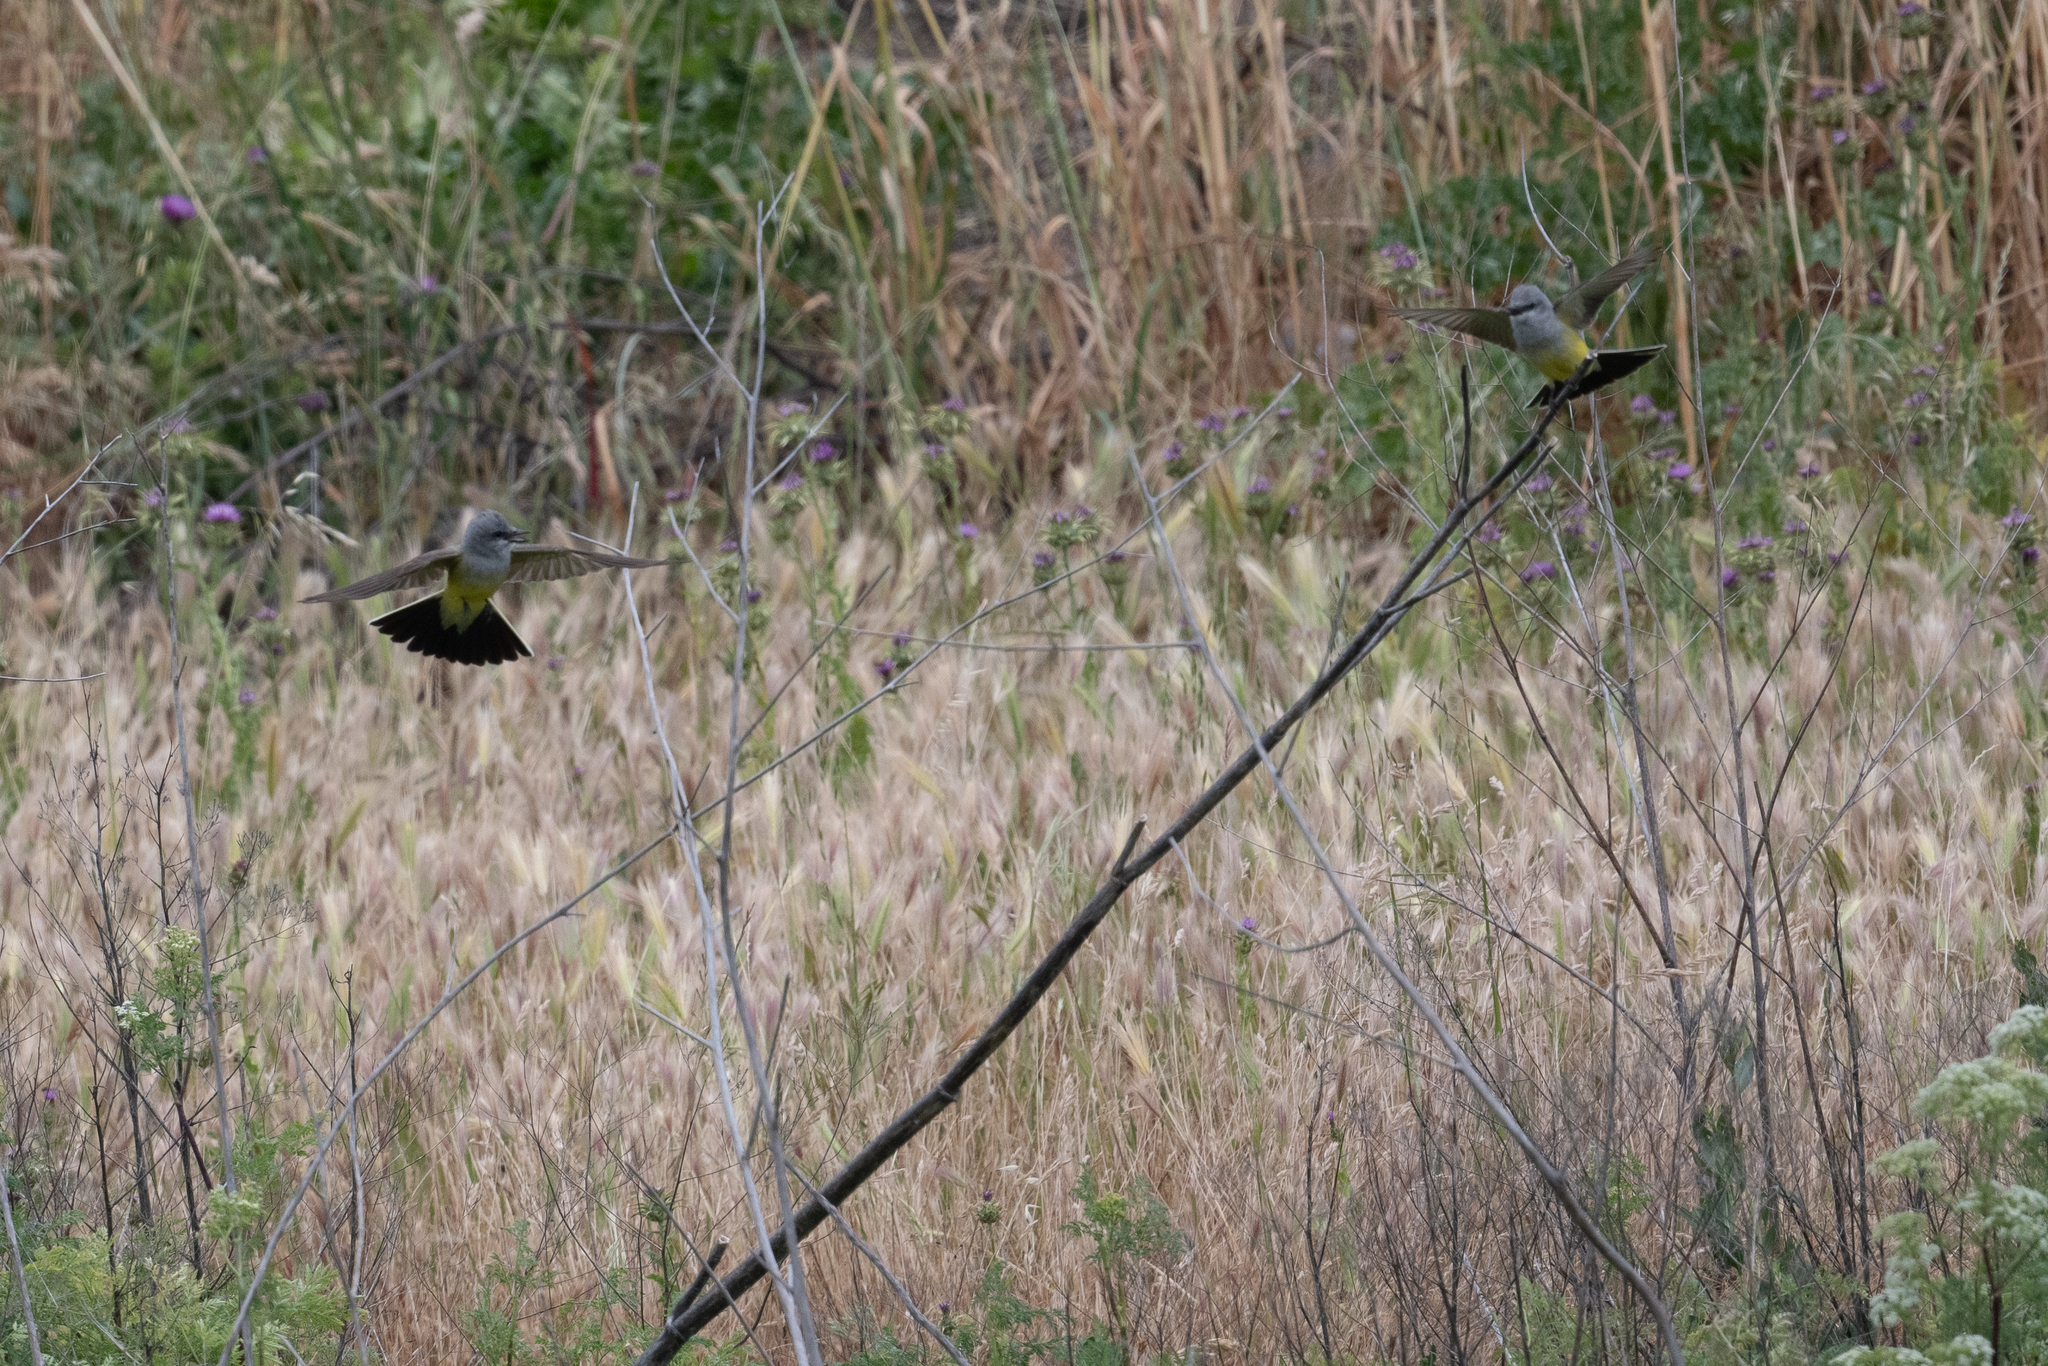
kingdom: Animalia
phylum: Chordata
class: Aves
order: Passeriformes
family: Tyrannidae
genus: Tyrannus
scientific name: Tyrannus verticalis
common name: Western kingbird
